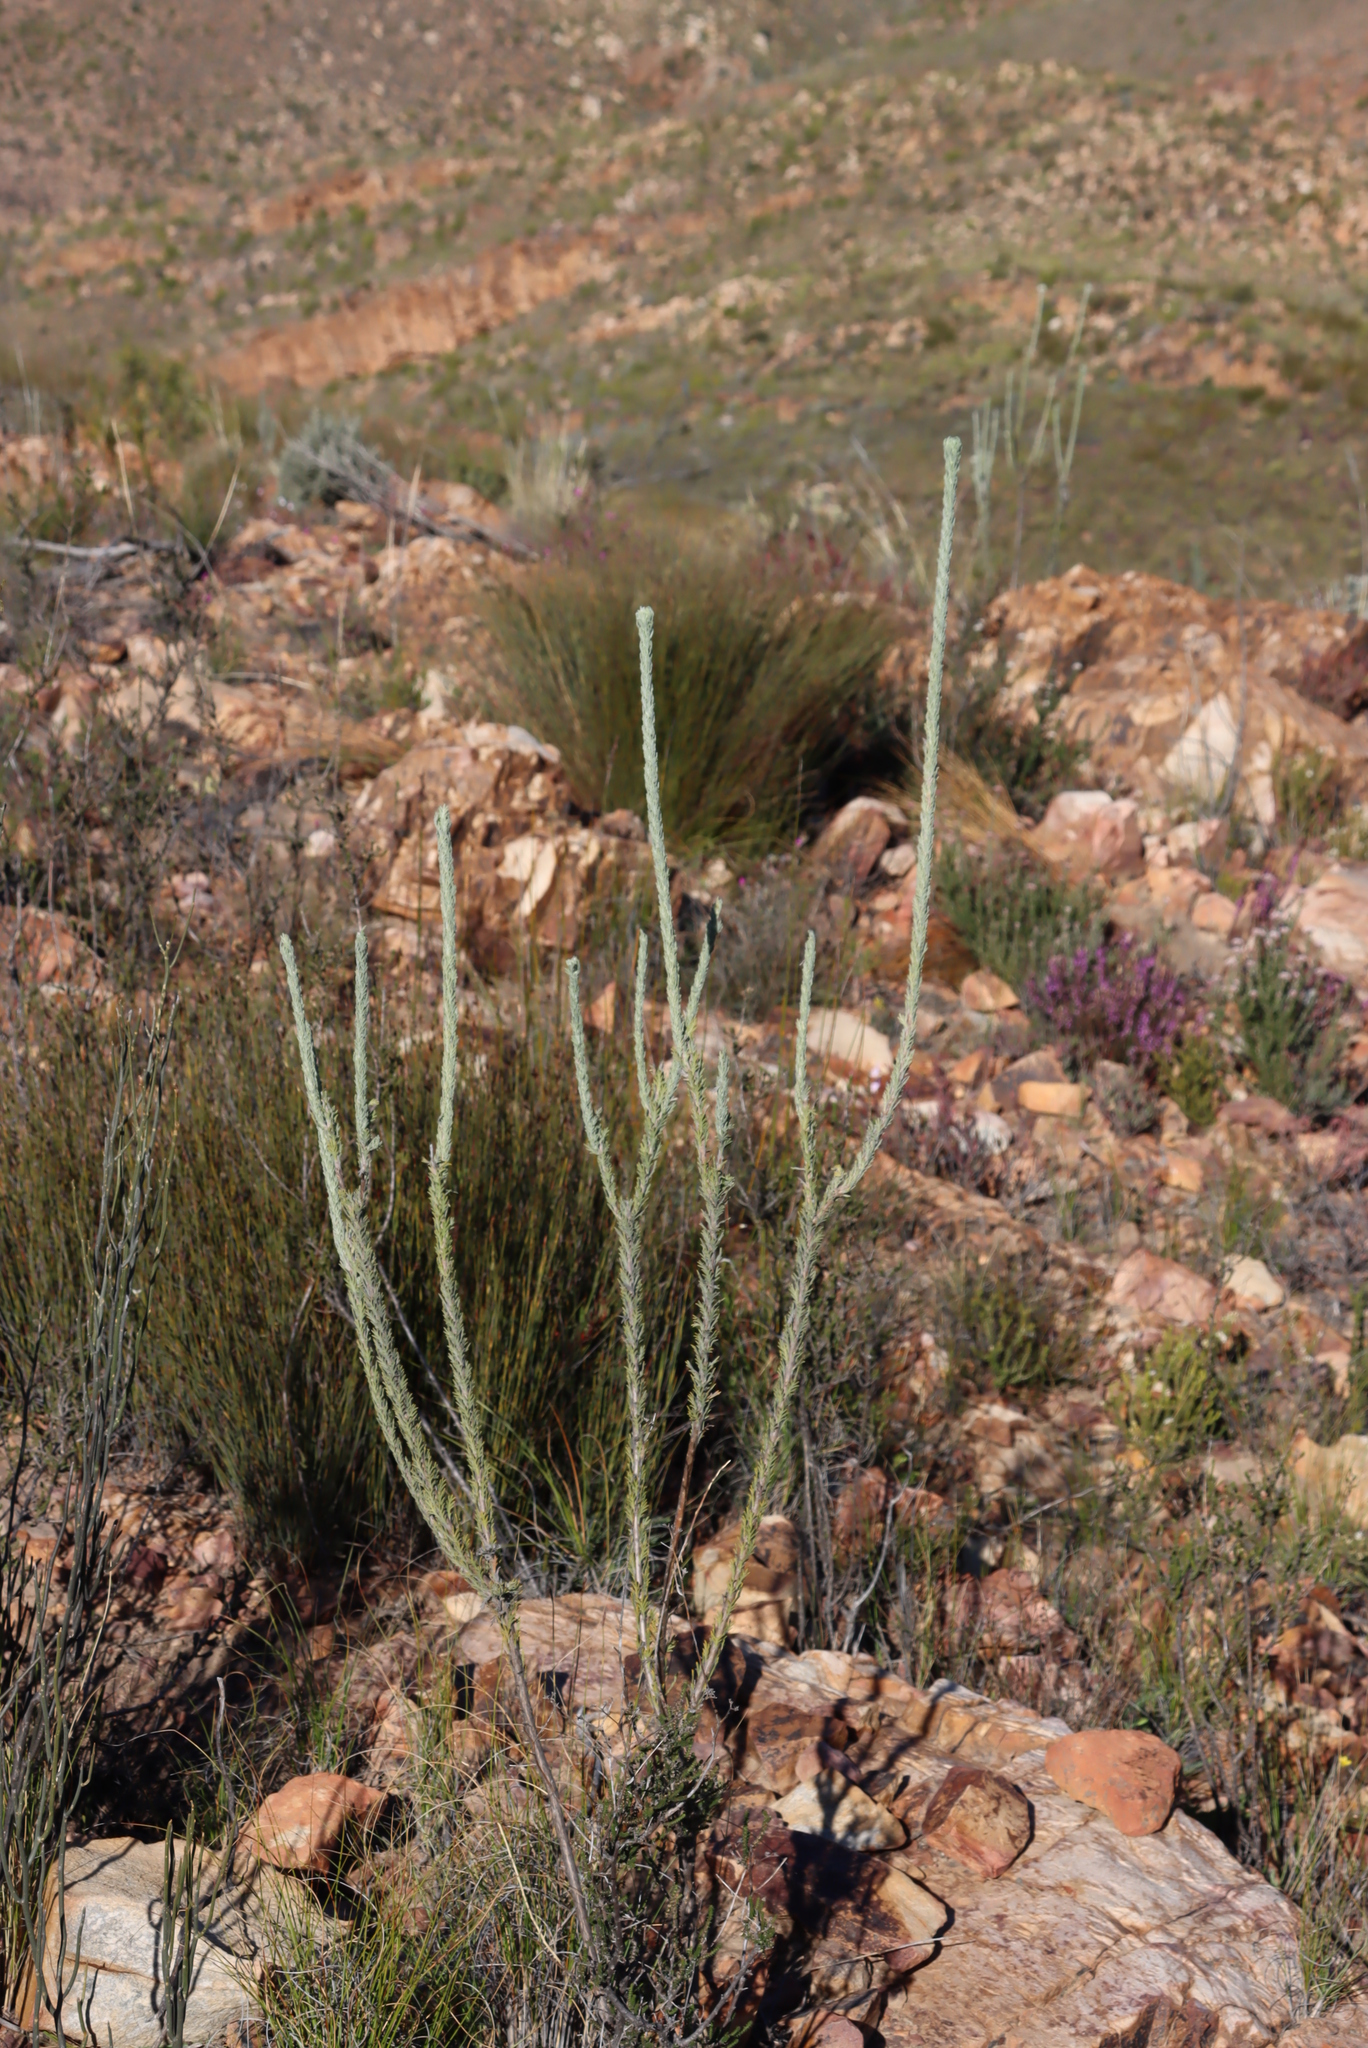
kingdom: Plantae
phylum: Tracheophyta
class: Magnoliopsida
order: Asterales
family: Asteraceae
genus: Athanasia
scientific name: Athanasia pinnata
